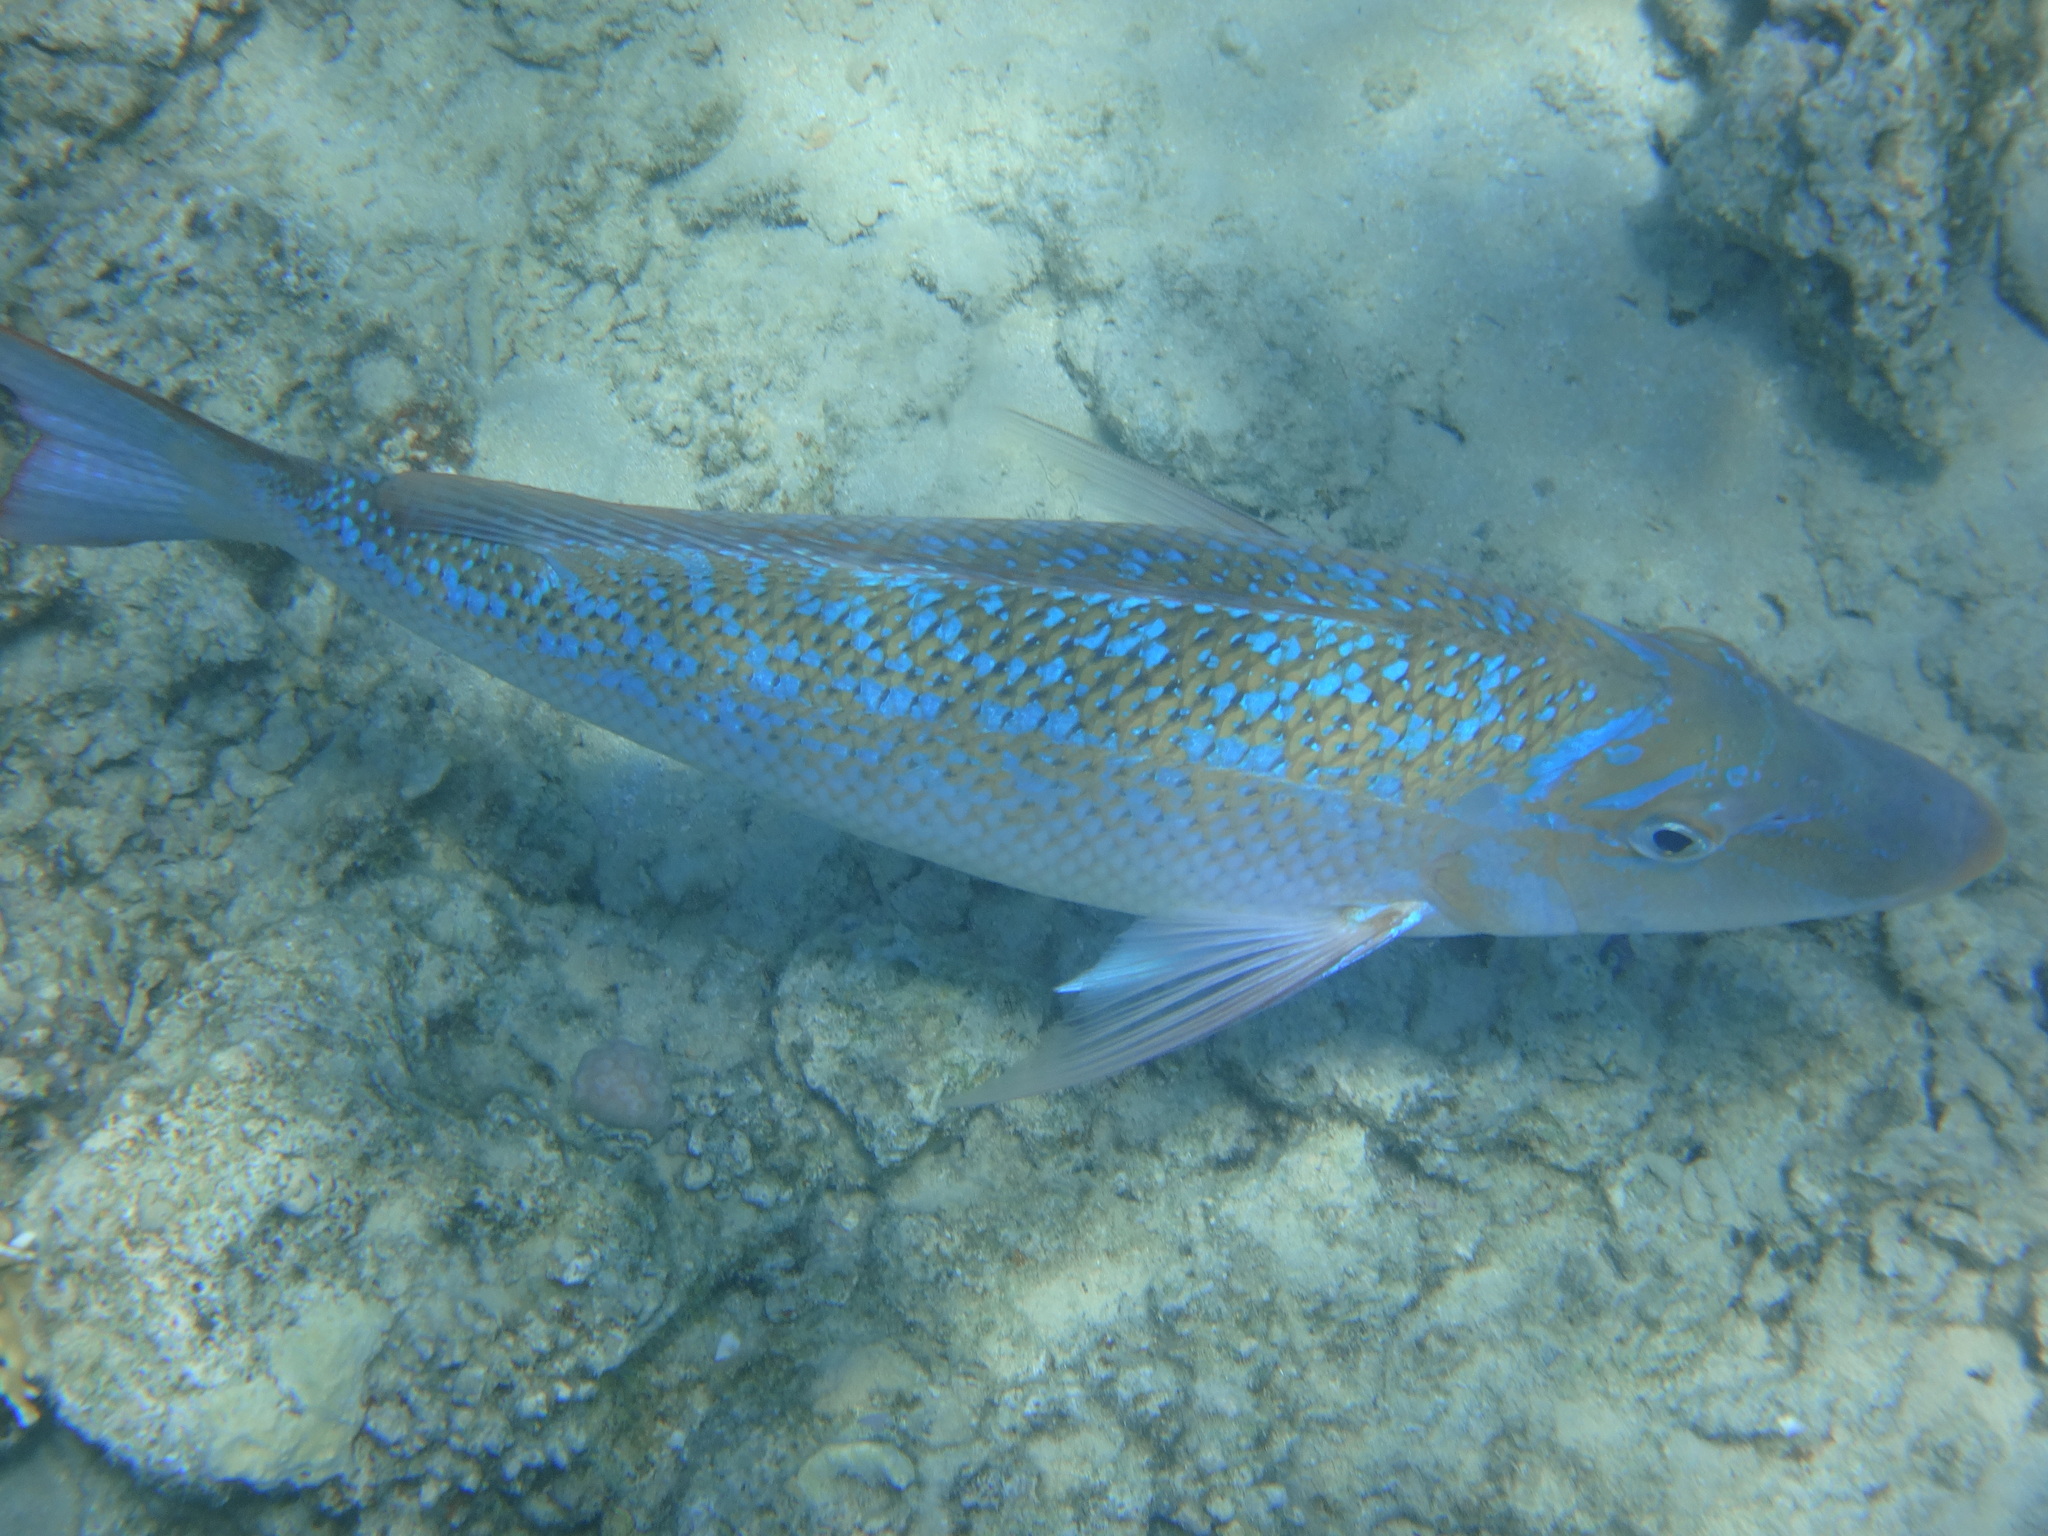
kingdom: Animalia
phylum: Chordata
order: Perciformes
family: Lethrinidae
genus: Lethrinus
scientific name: Lethrinus nebulosus
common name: Spangled emperor
